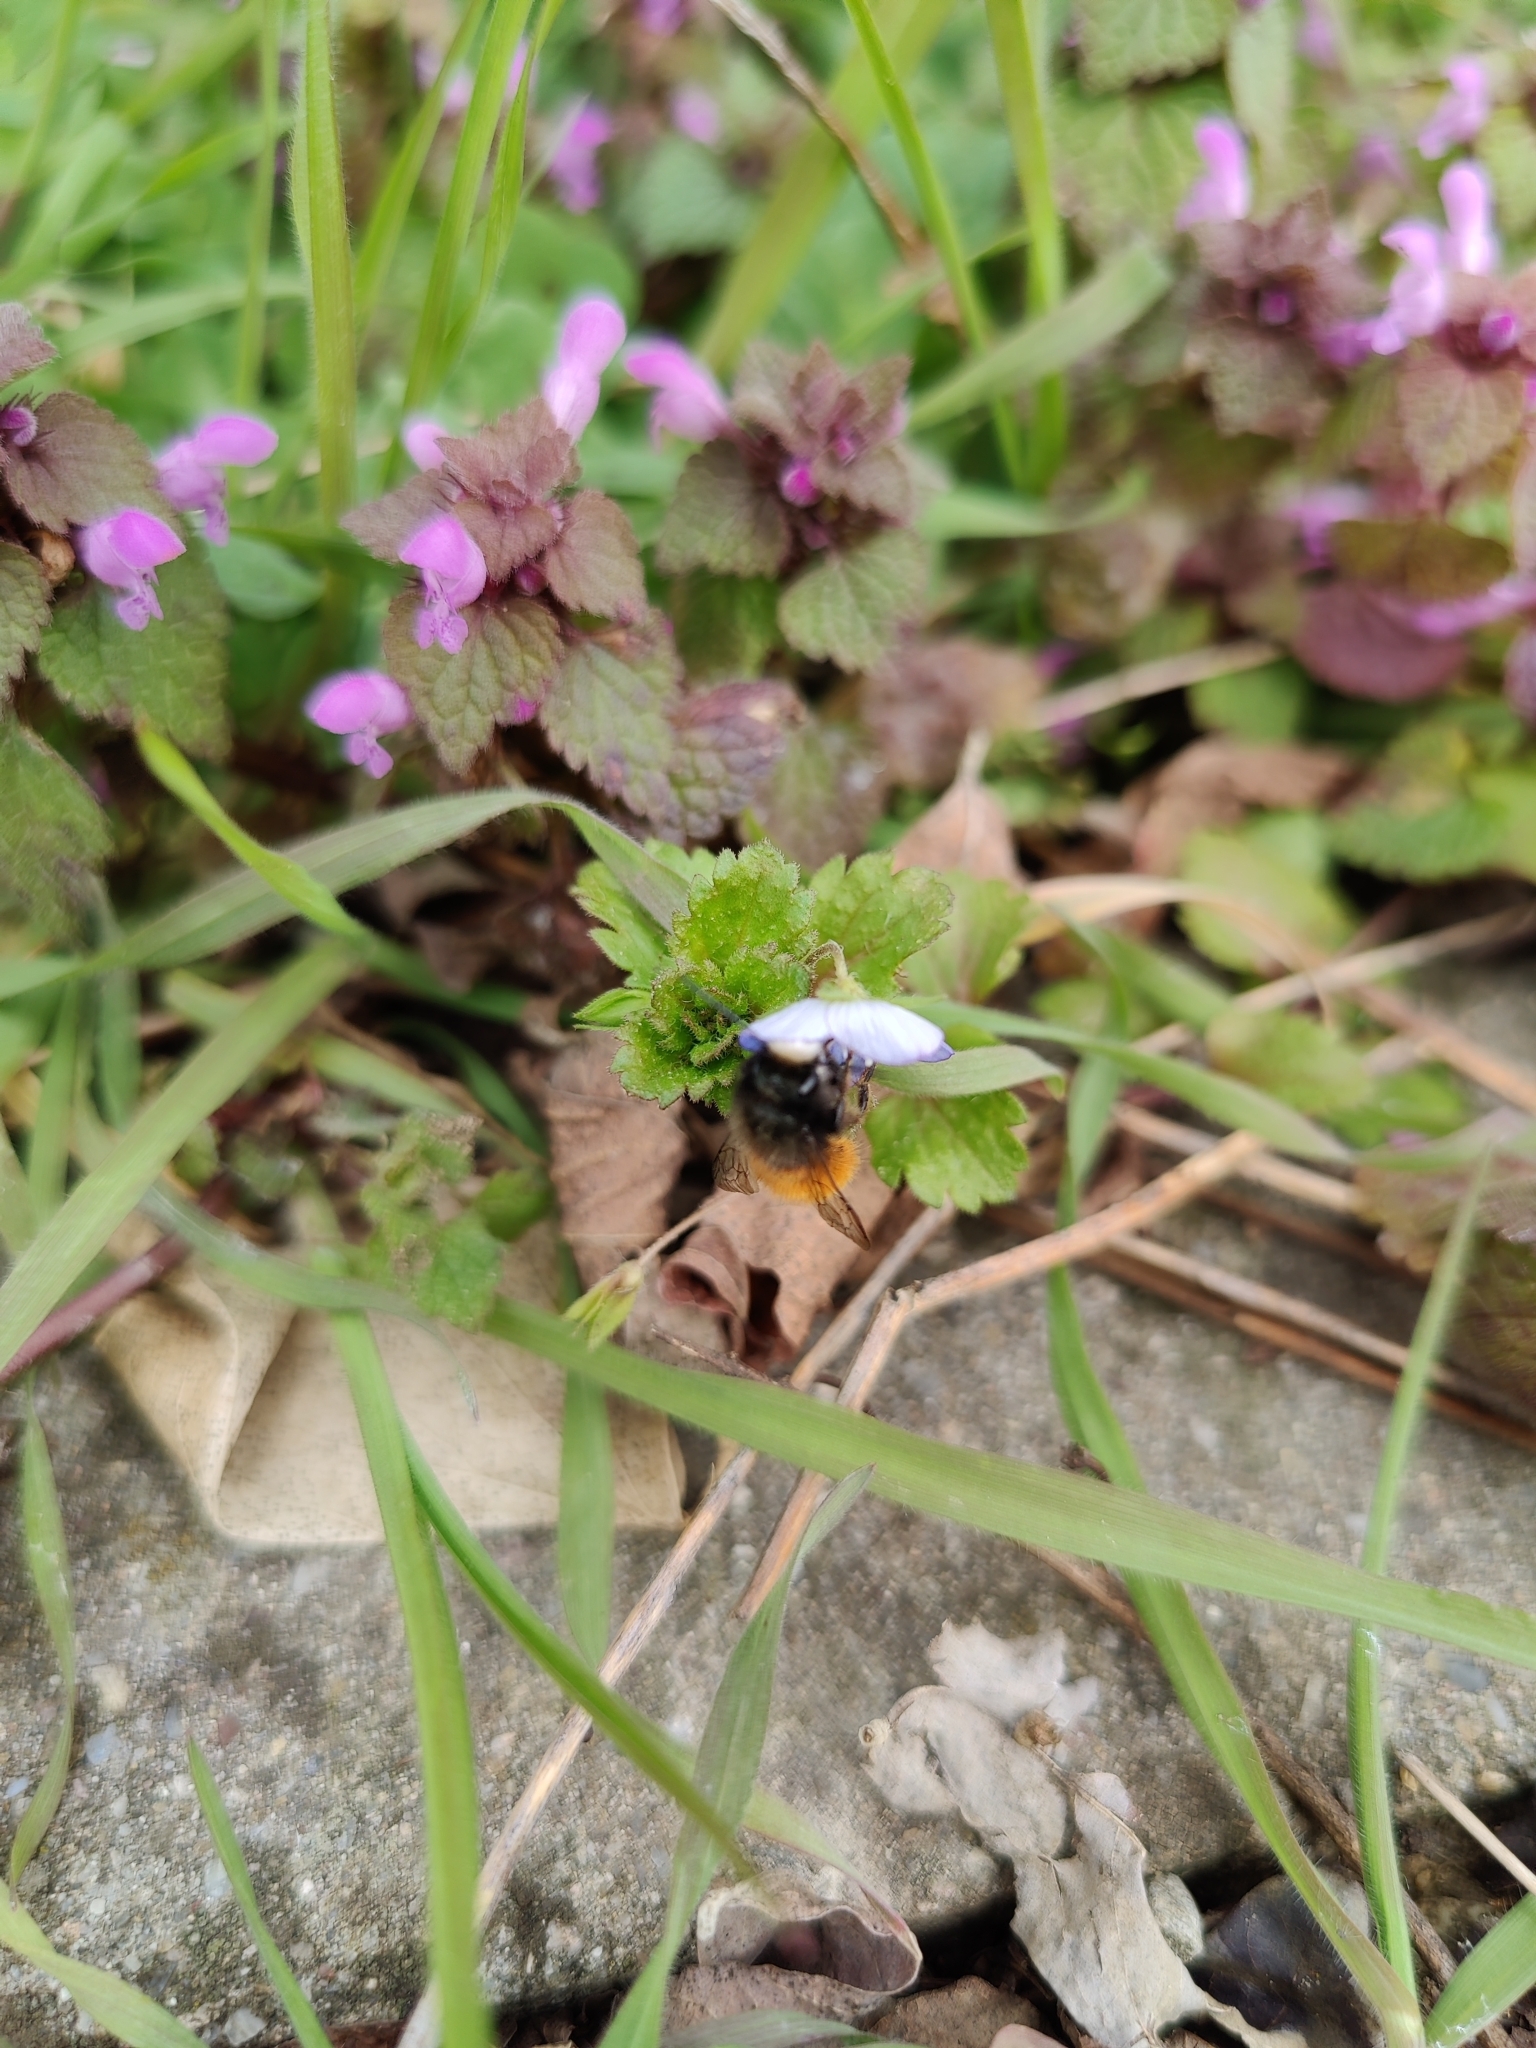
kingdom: Animalia
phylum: Arthropoda
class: Insecta
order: Hymenoptera
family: Megachilidae
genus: Osmia
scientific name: Osmia cornuta
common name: Mason bee
